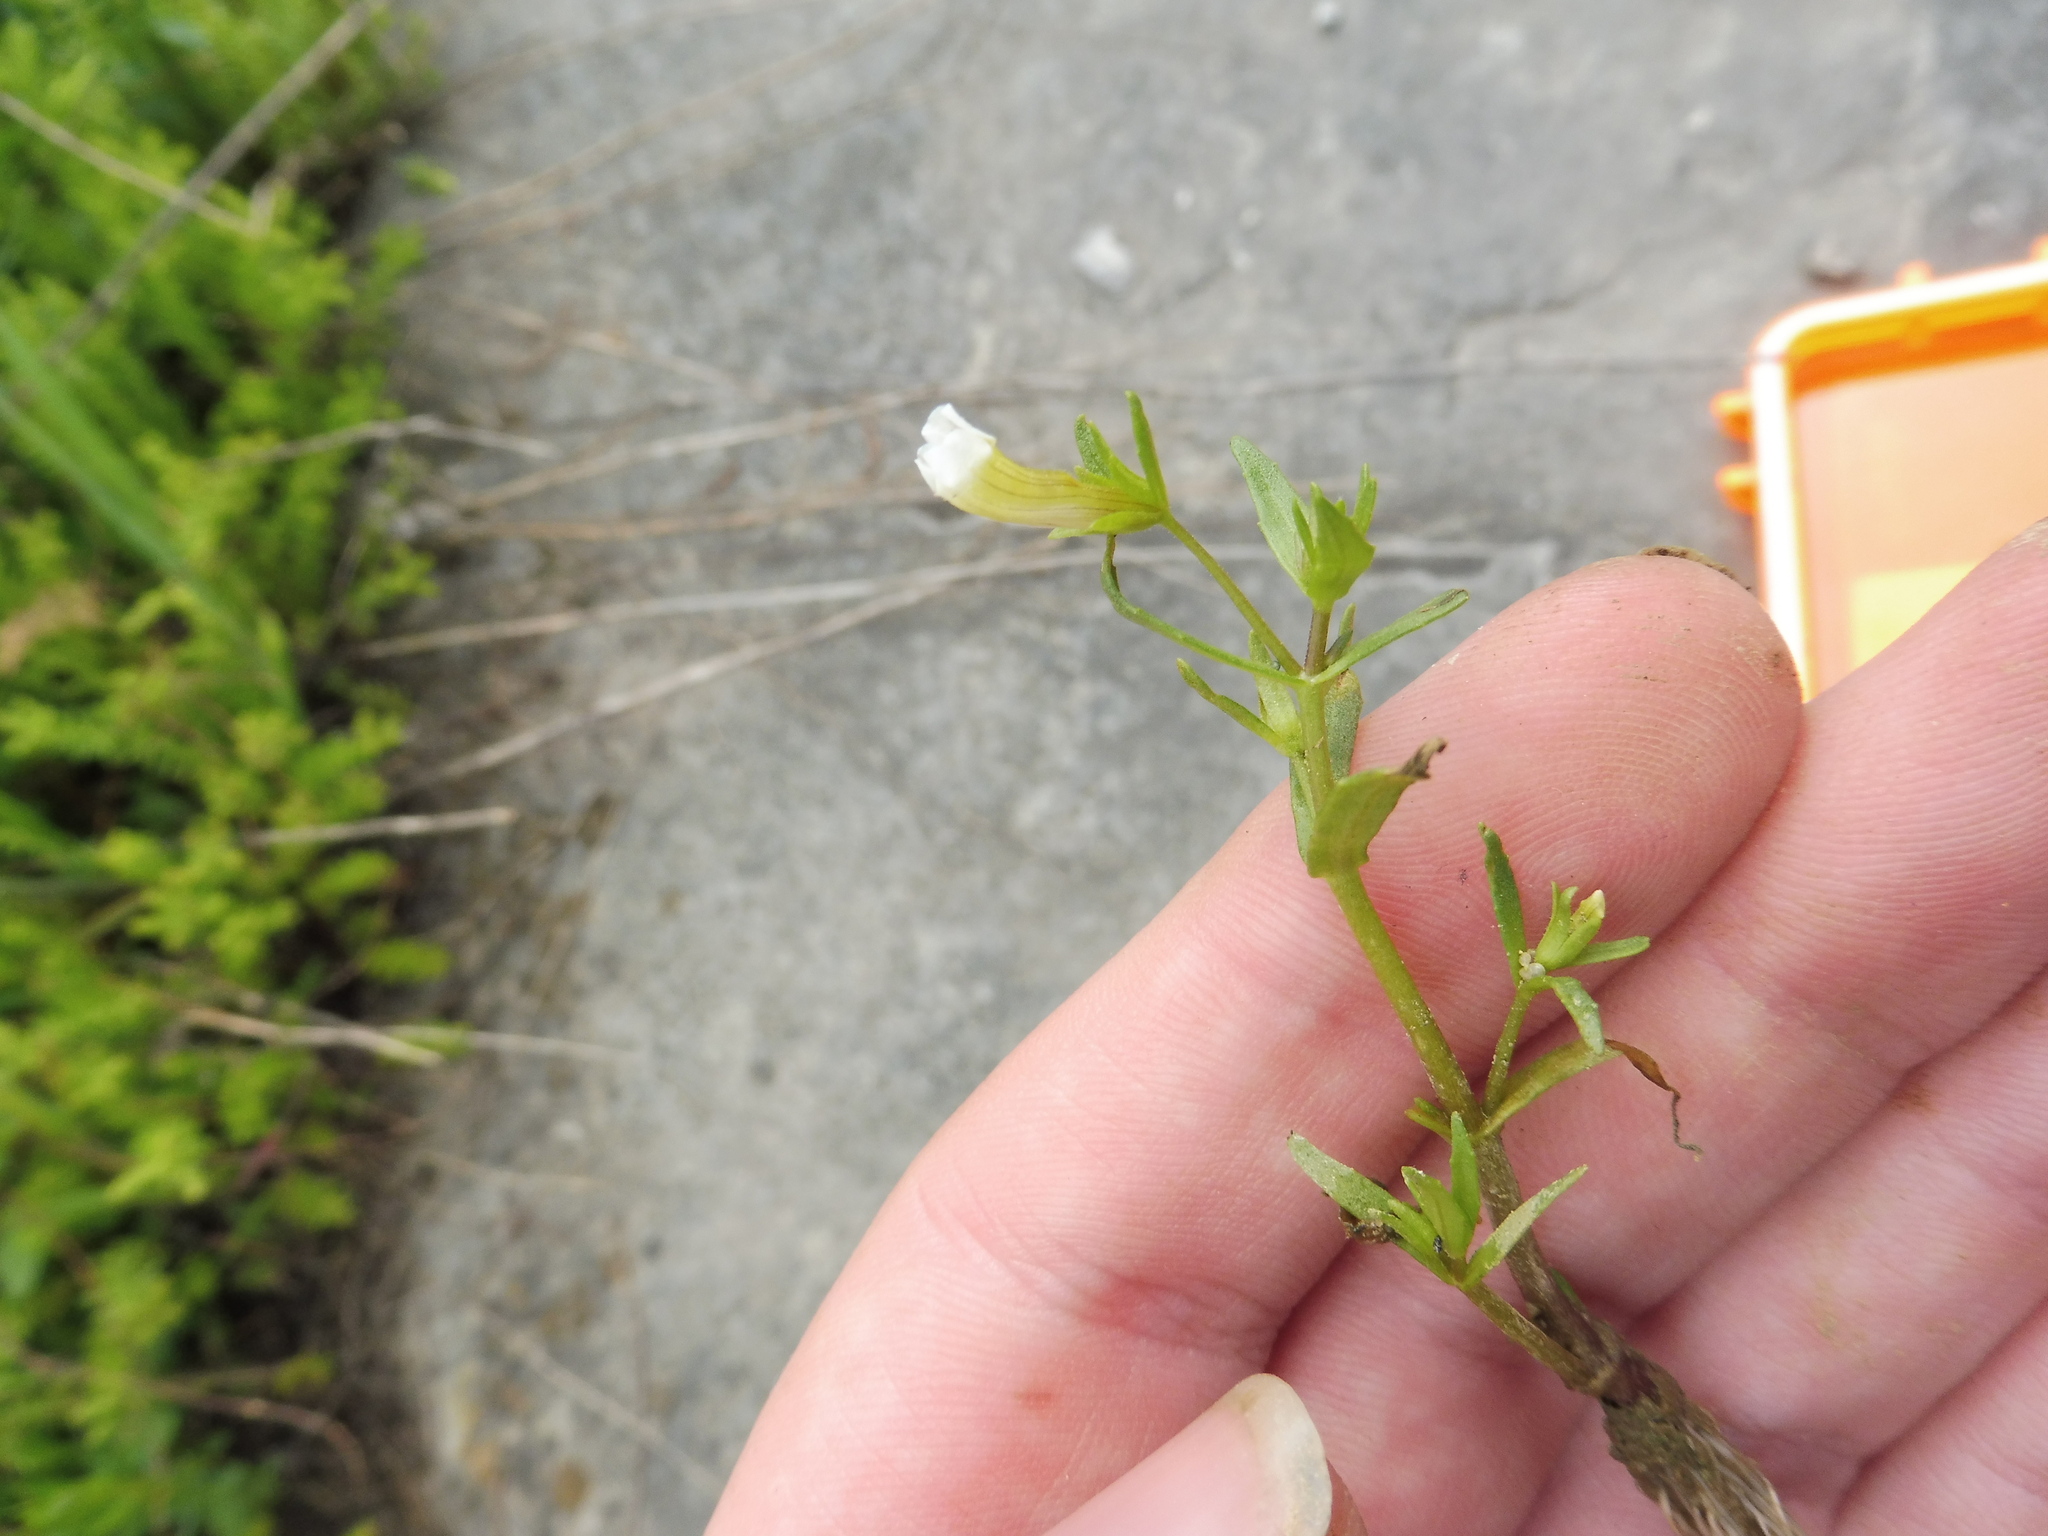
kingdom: Plantae
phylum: Tracheophyta
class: Magnoliopsida
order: Lamiales
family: Plantaginaceae
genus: Gratiola
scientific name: Gratiola quartermaniae
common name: Quarterman's hedge-hyssop
